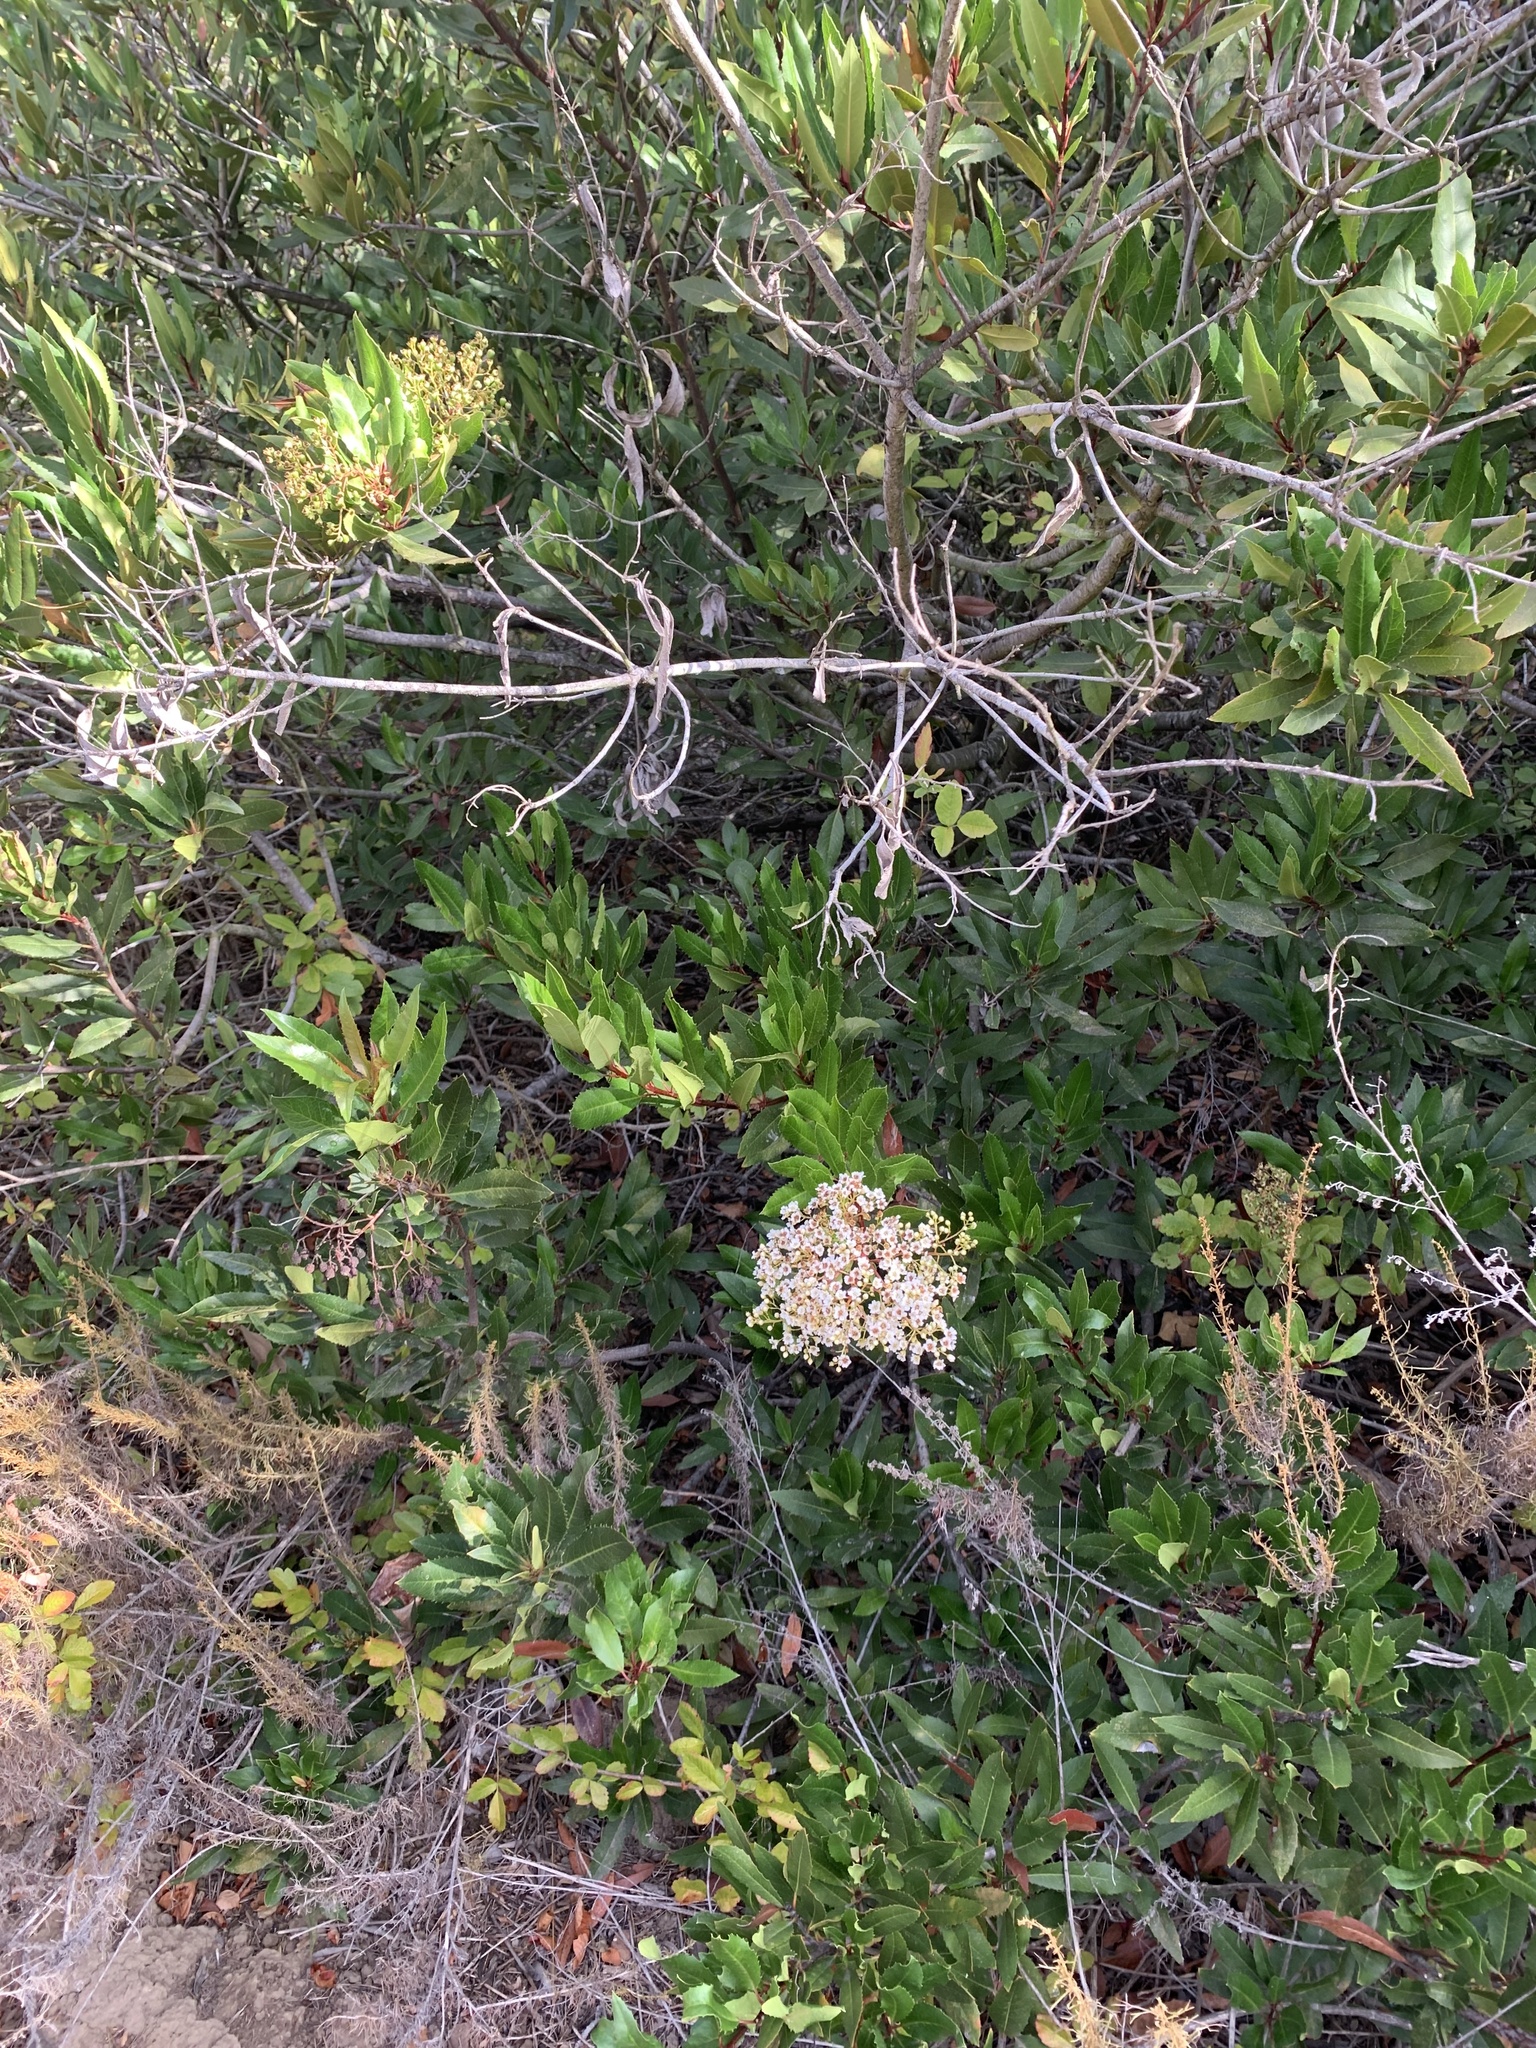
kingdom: Plantae
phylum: Tracheophyta
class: Magnoliopsida
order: Rosales
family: Rosaceae
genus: Heteromeles
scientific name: Heteromeles arbutifolia
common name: California-holly
